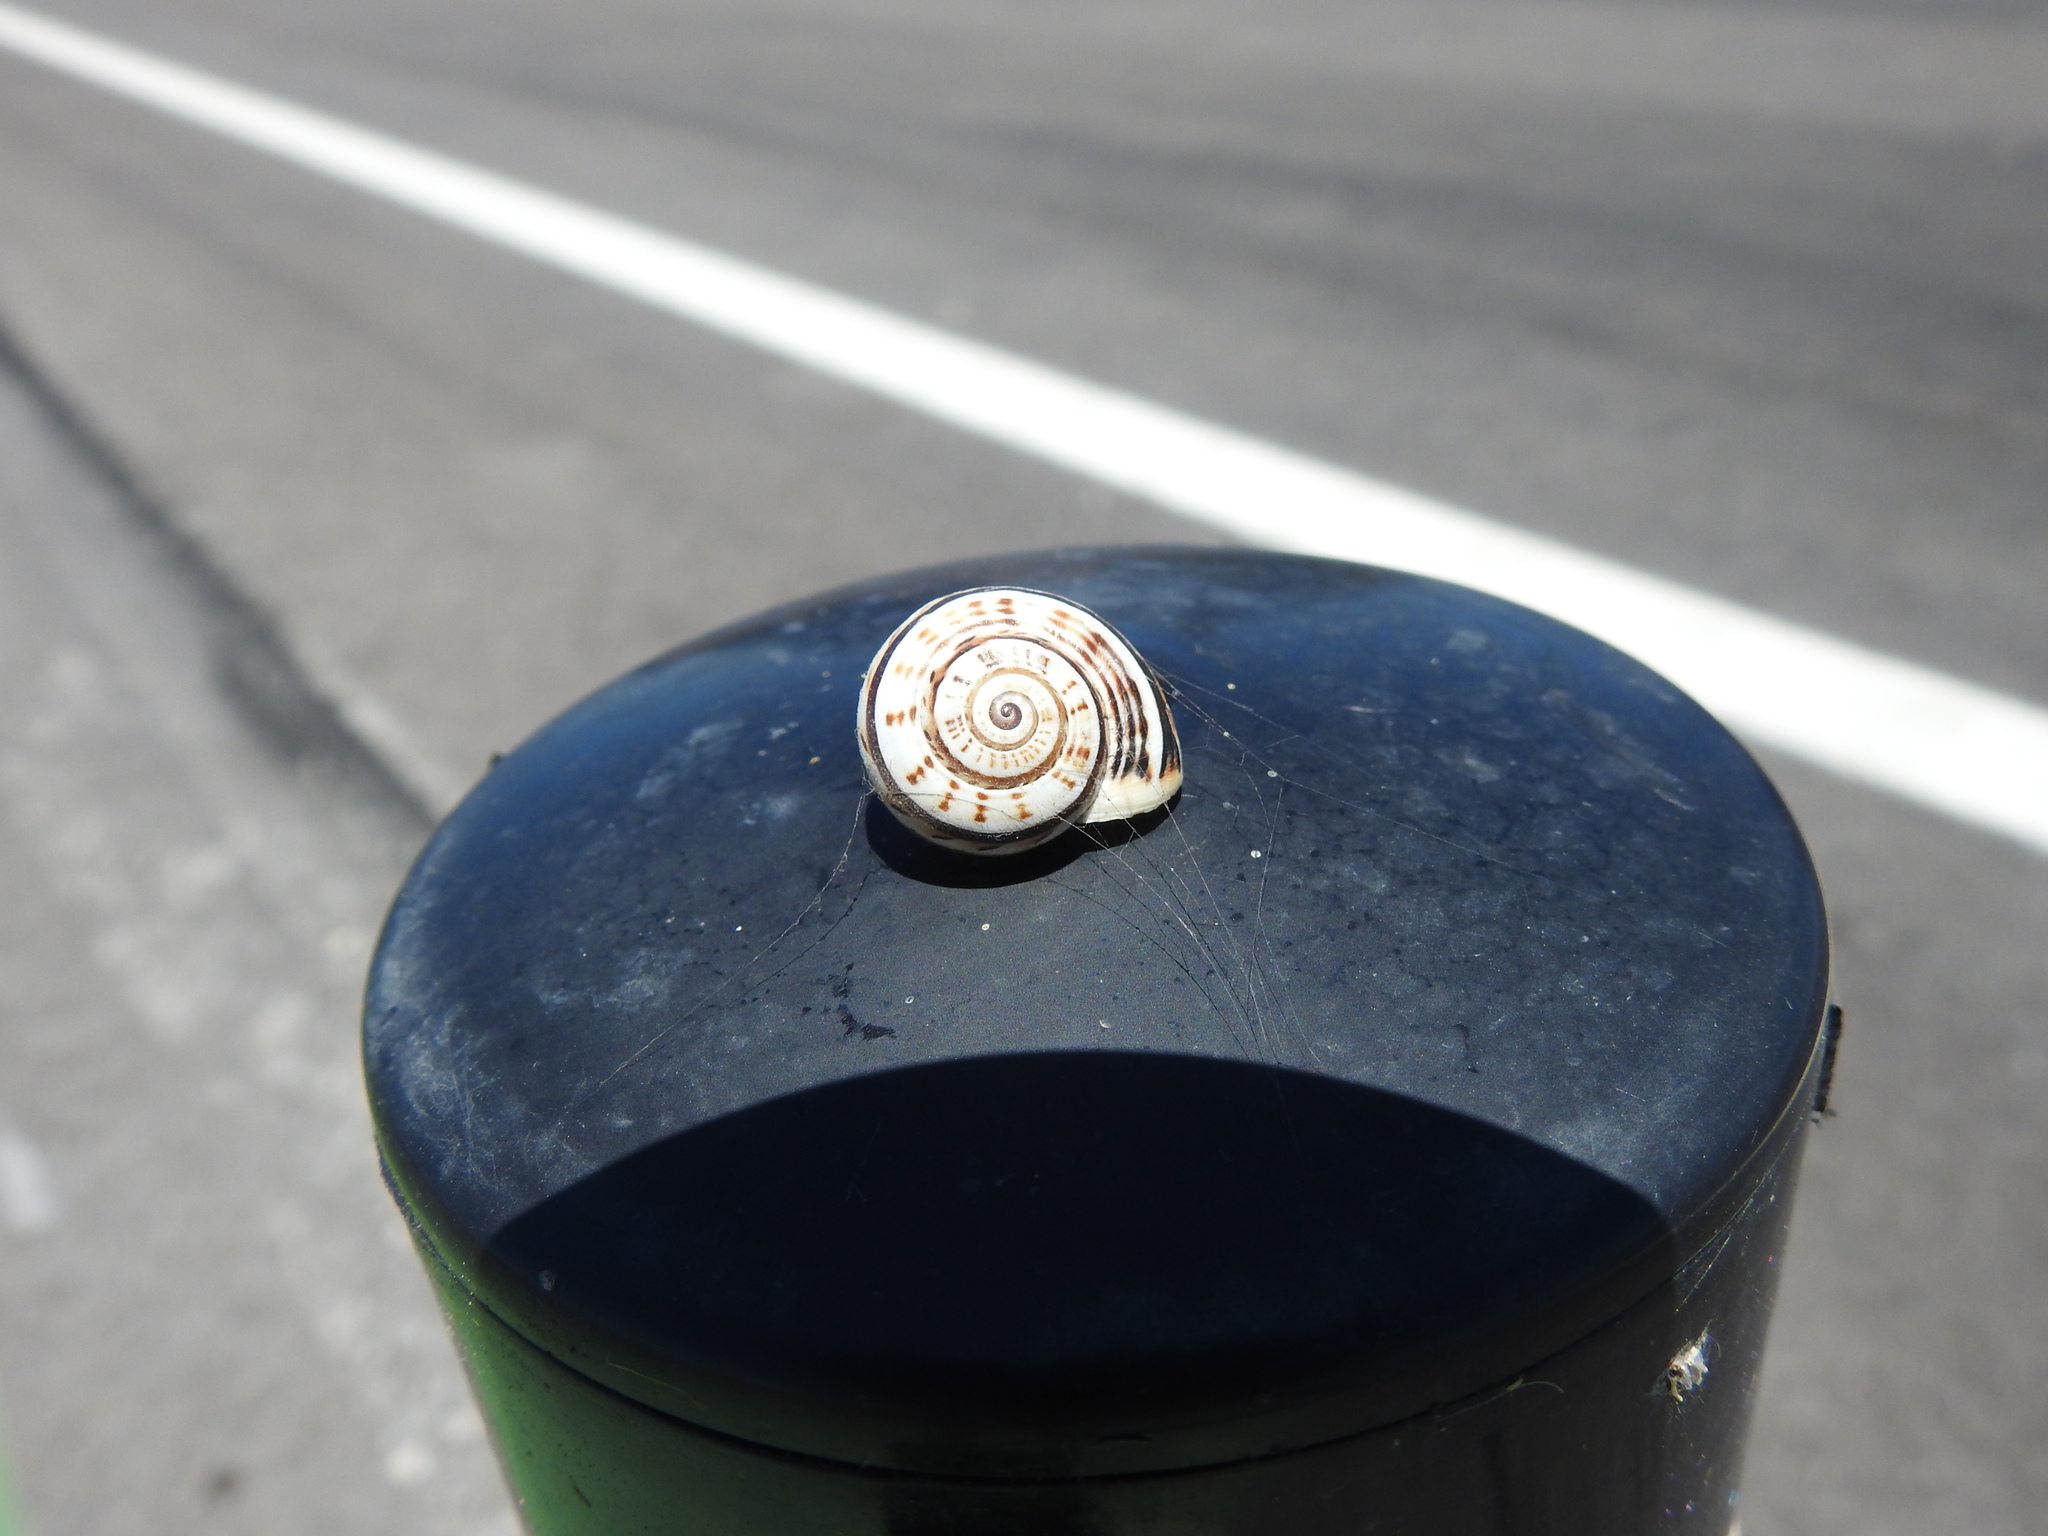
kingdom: Animalia
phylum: Mollusca
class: Gastropoda
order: Stylommatophora
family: Helicidae
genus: Theba
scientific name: Theba pisana
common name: White snail
